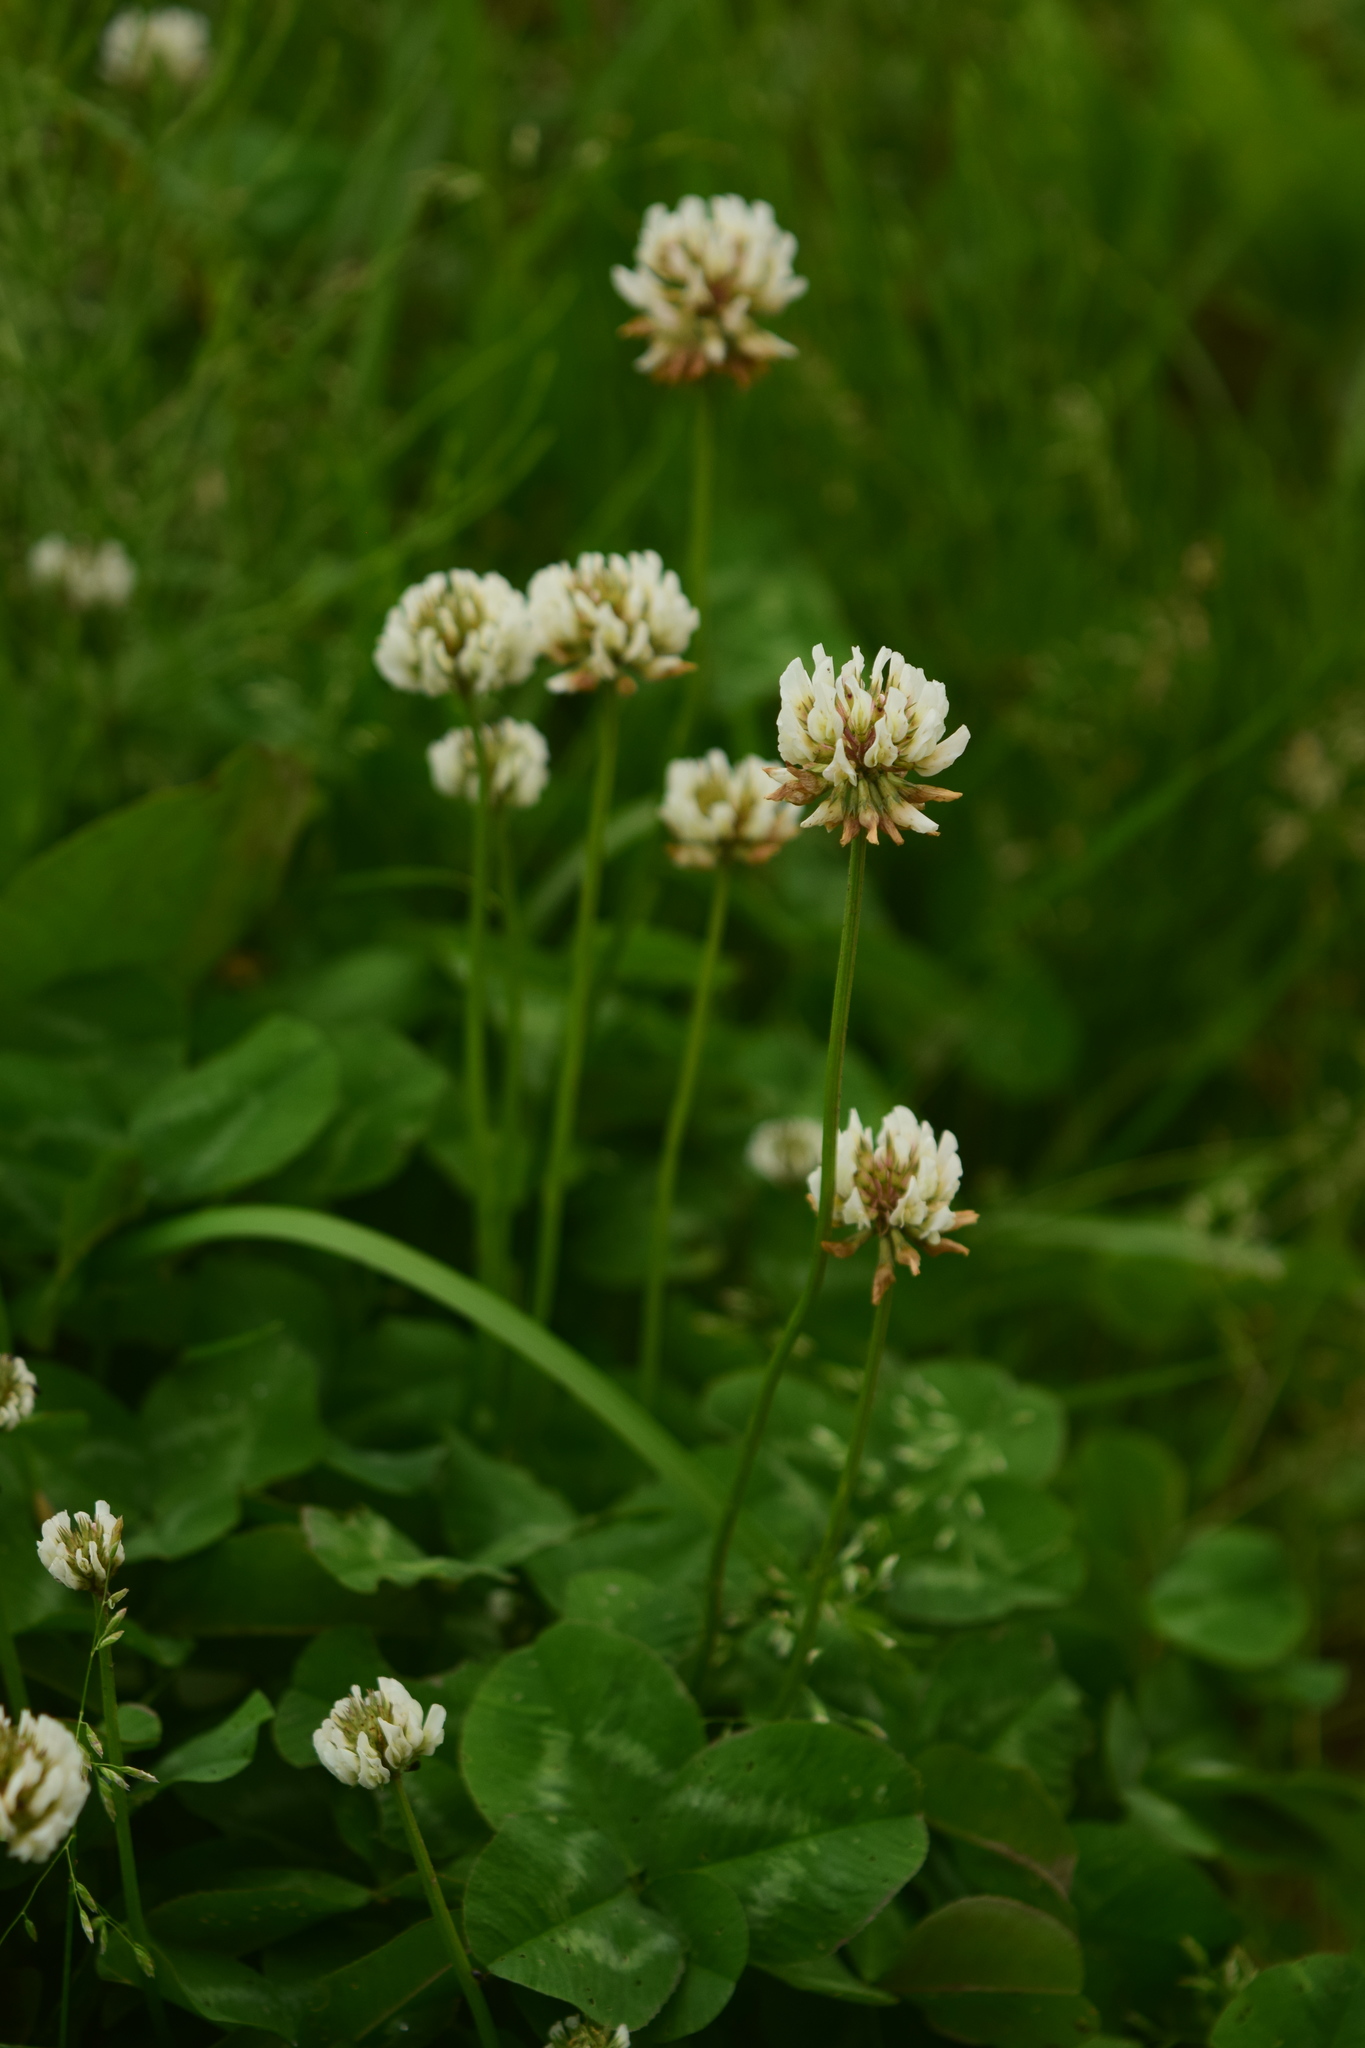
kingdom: Plantae
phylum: Tracheophyta
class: Magnoliopsida
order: Fabales
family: Fabaceae
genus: Trifolium
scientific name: Trifolium repens
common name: White clover
